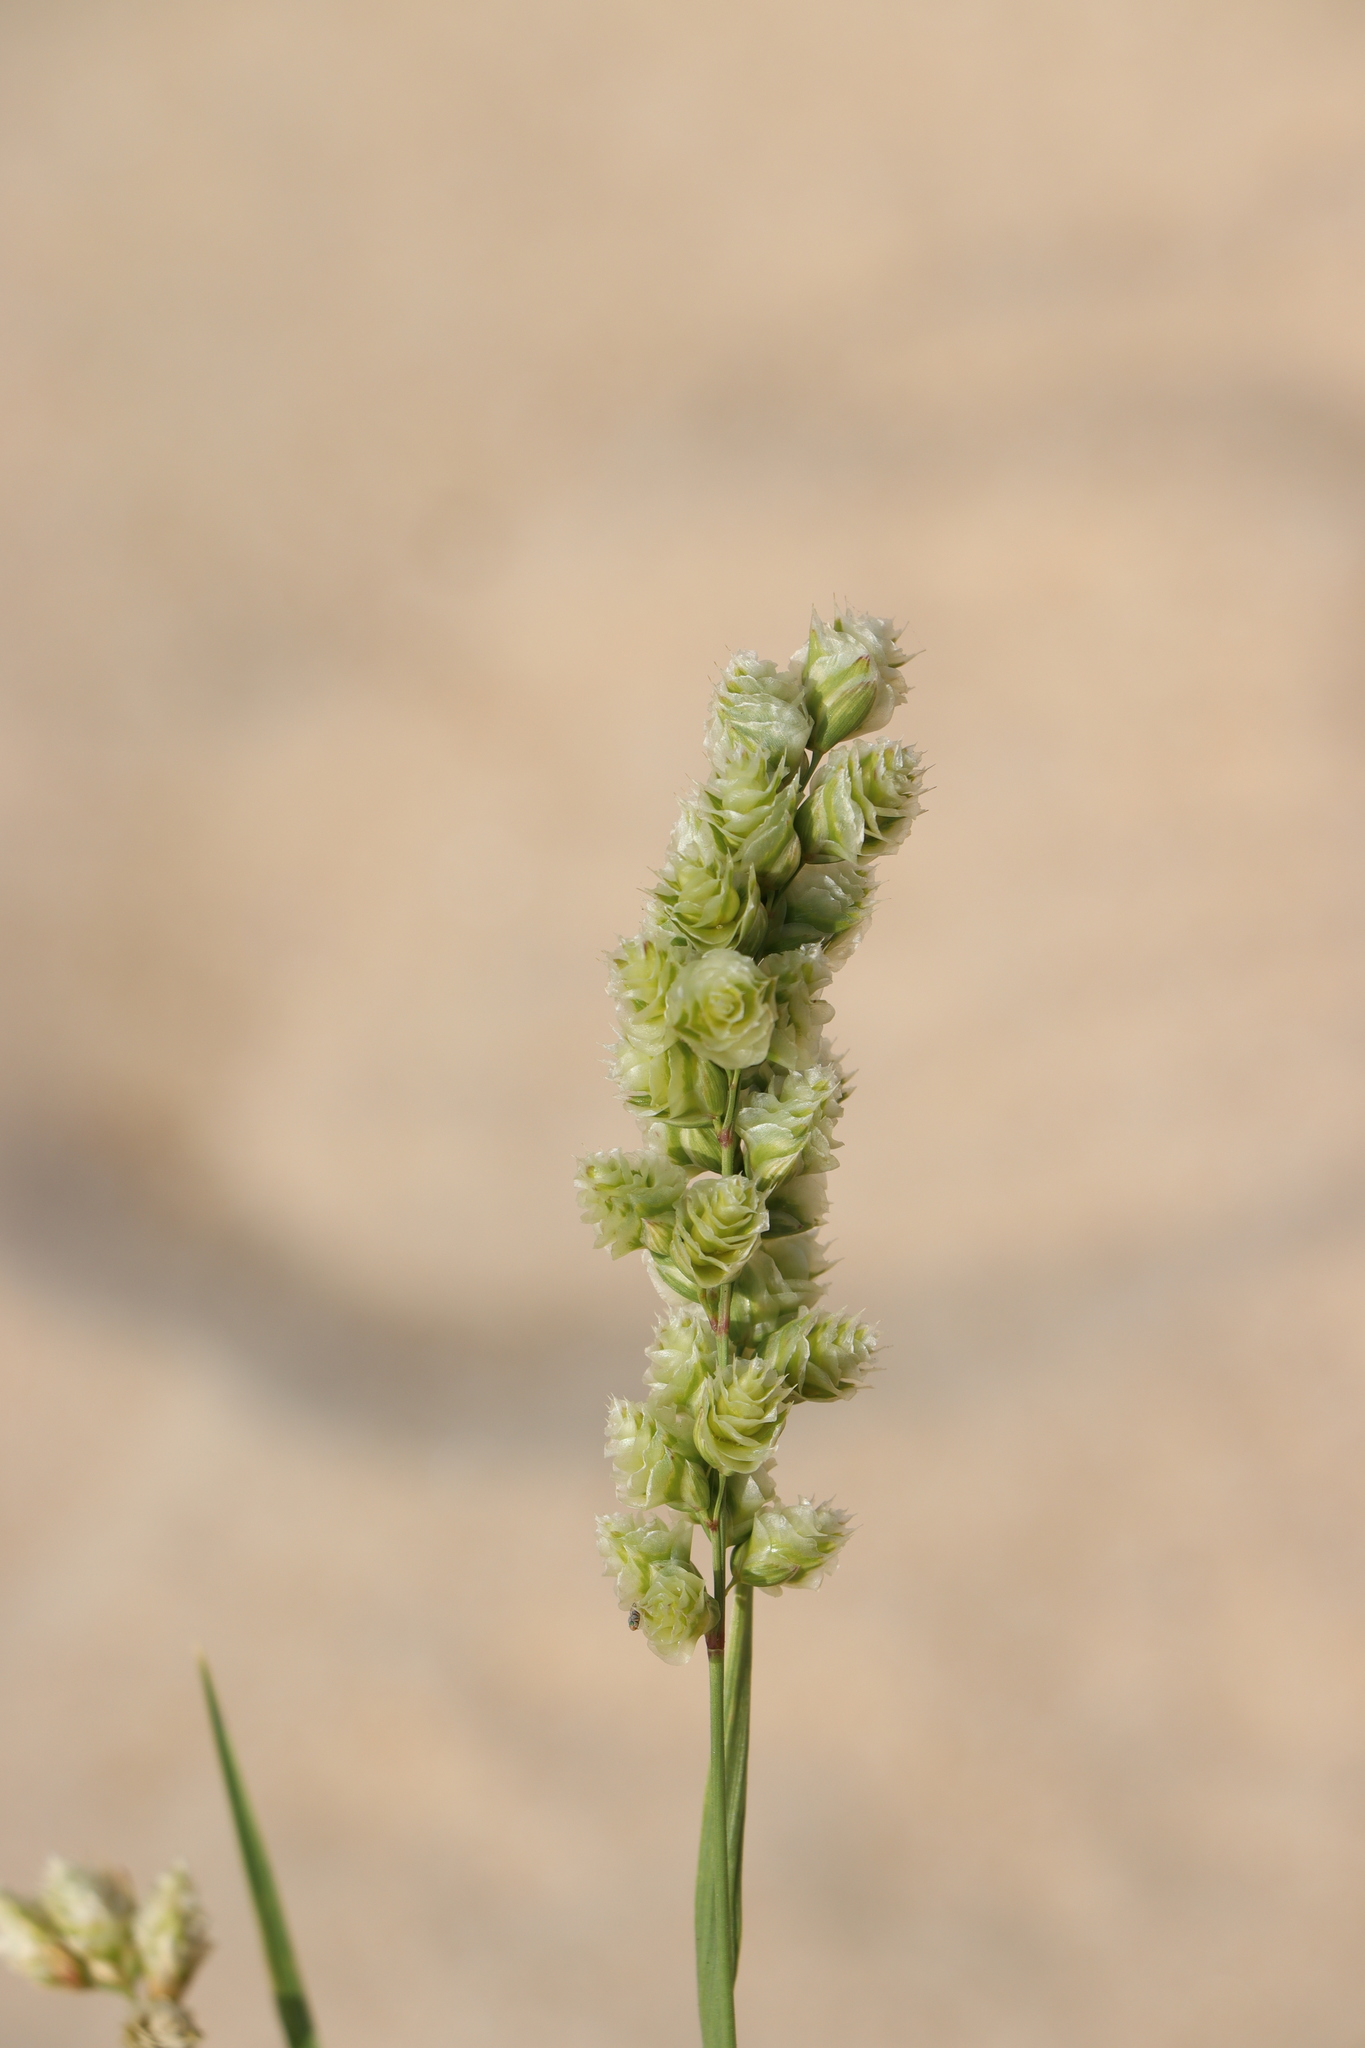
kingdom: Plantae
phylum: Tracheophyta
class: Liliopsida
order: Poales
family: Poaceae
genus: Chascolytrum
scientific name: Chascolytrum subaristatum
